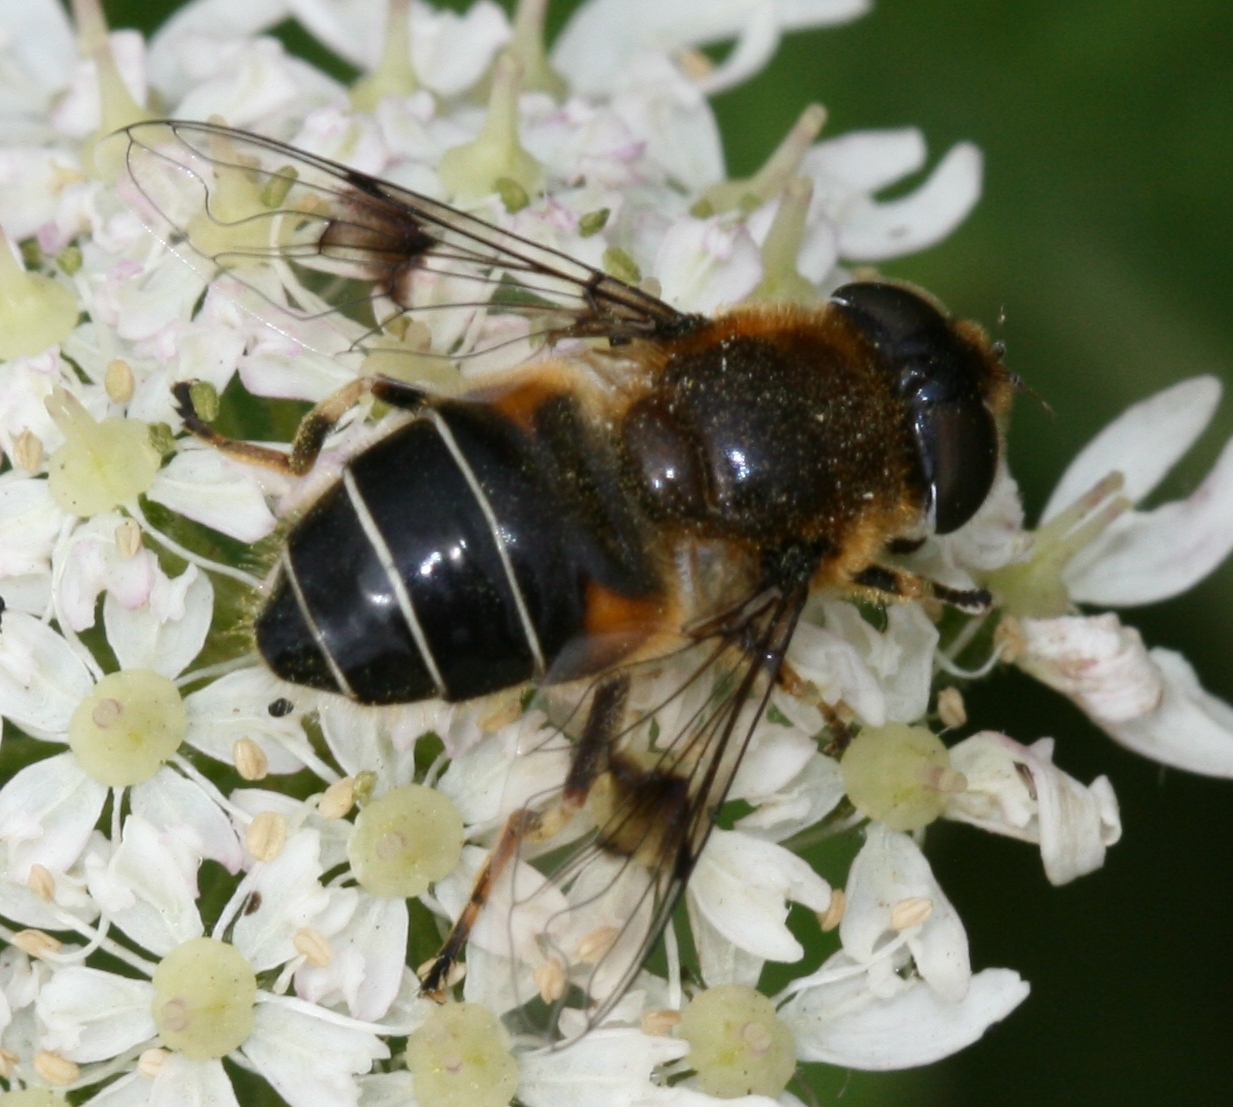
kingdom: Animalia
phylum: Arthropoda
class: Insecta
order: Diptera
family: Syrphidae
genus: Eristalis
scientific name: Eristalis rupium
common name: Hover fly
